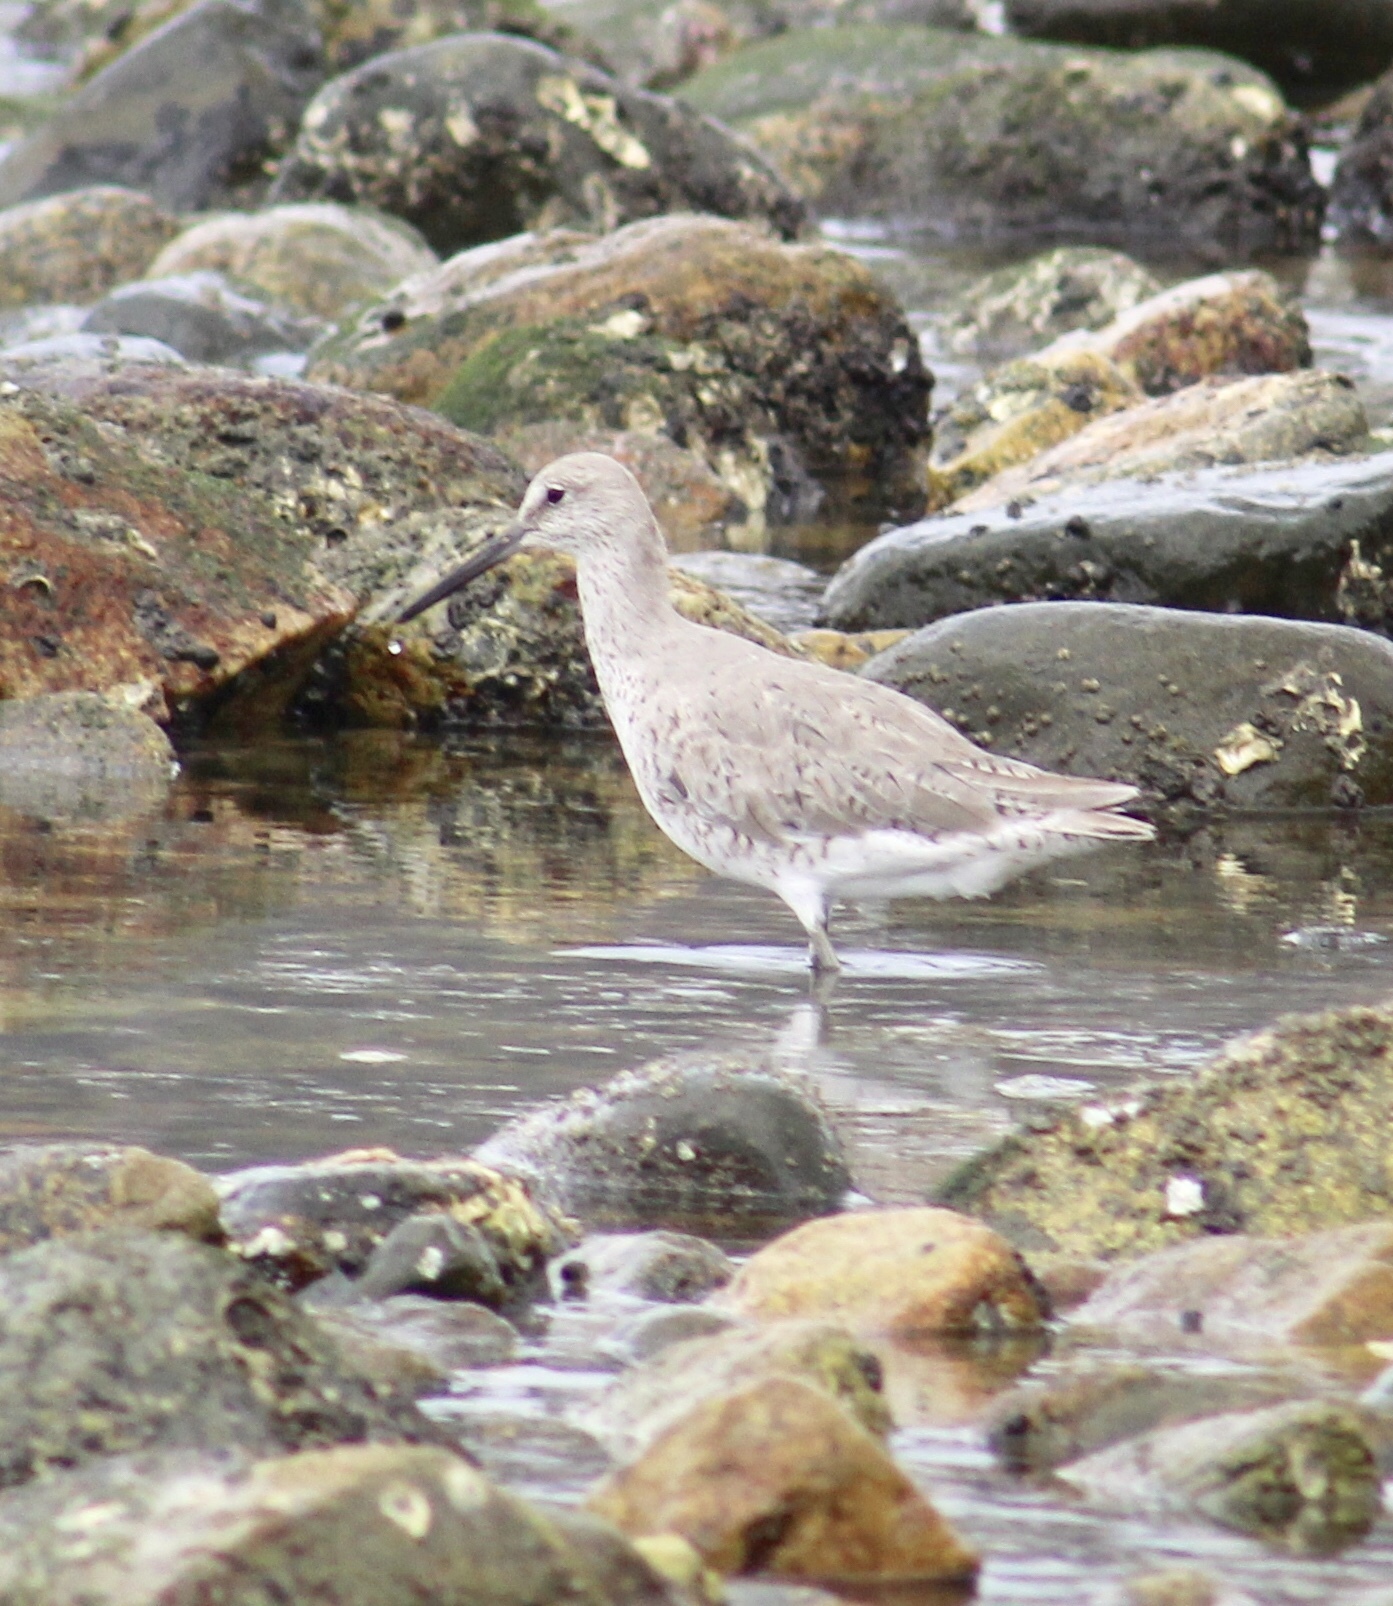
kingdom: Animalia
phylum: Chordata
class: Aves
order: Charadriiformes
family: Scolopacidae
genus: Tringa
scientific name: Tringa semipalmata
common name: Willet
